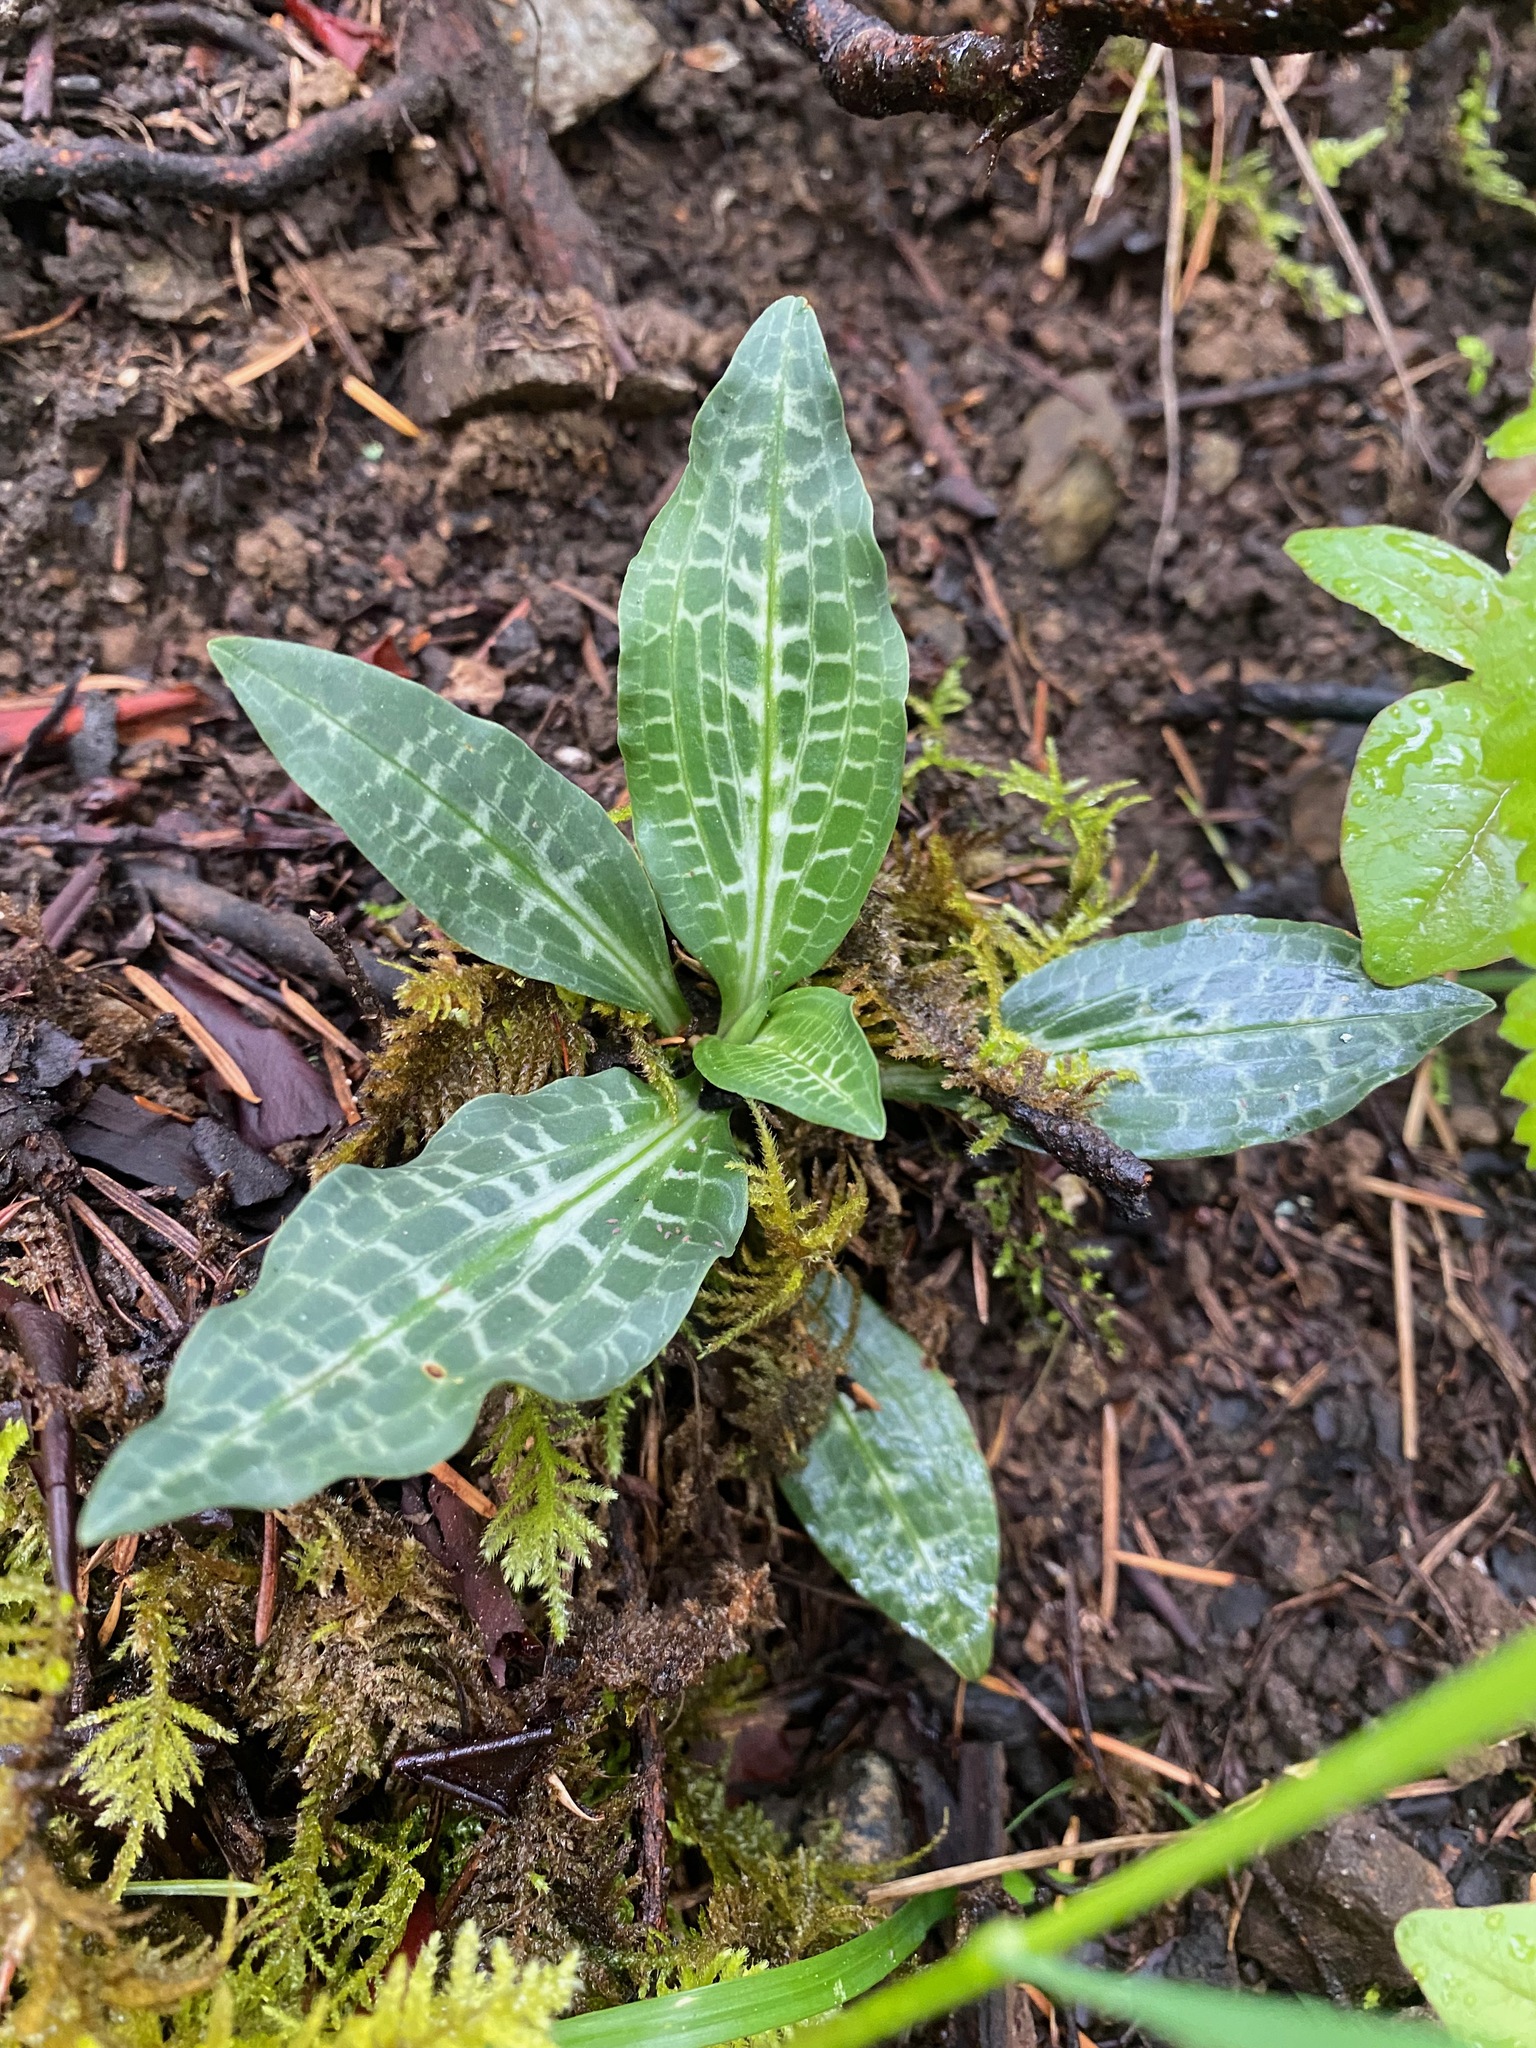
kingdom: Plantae
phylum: Tracheophyta
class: Liliopsida
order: Asparagales
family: Orchidaceae
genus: Goodyera
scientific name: Goodyera oblongifolia
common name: Giant rattlesnake-plantain
